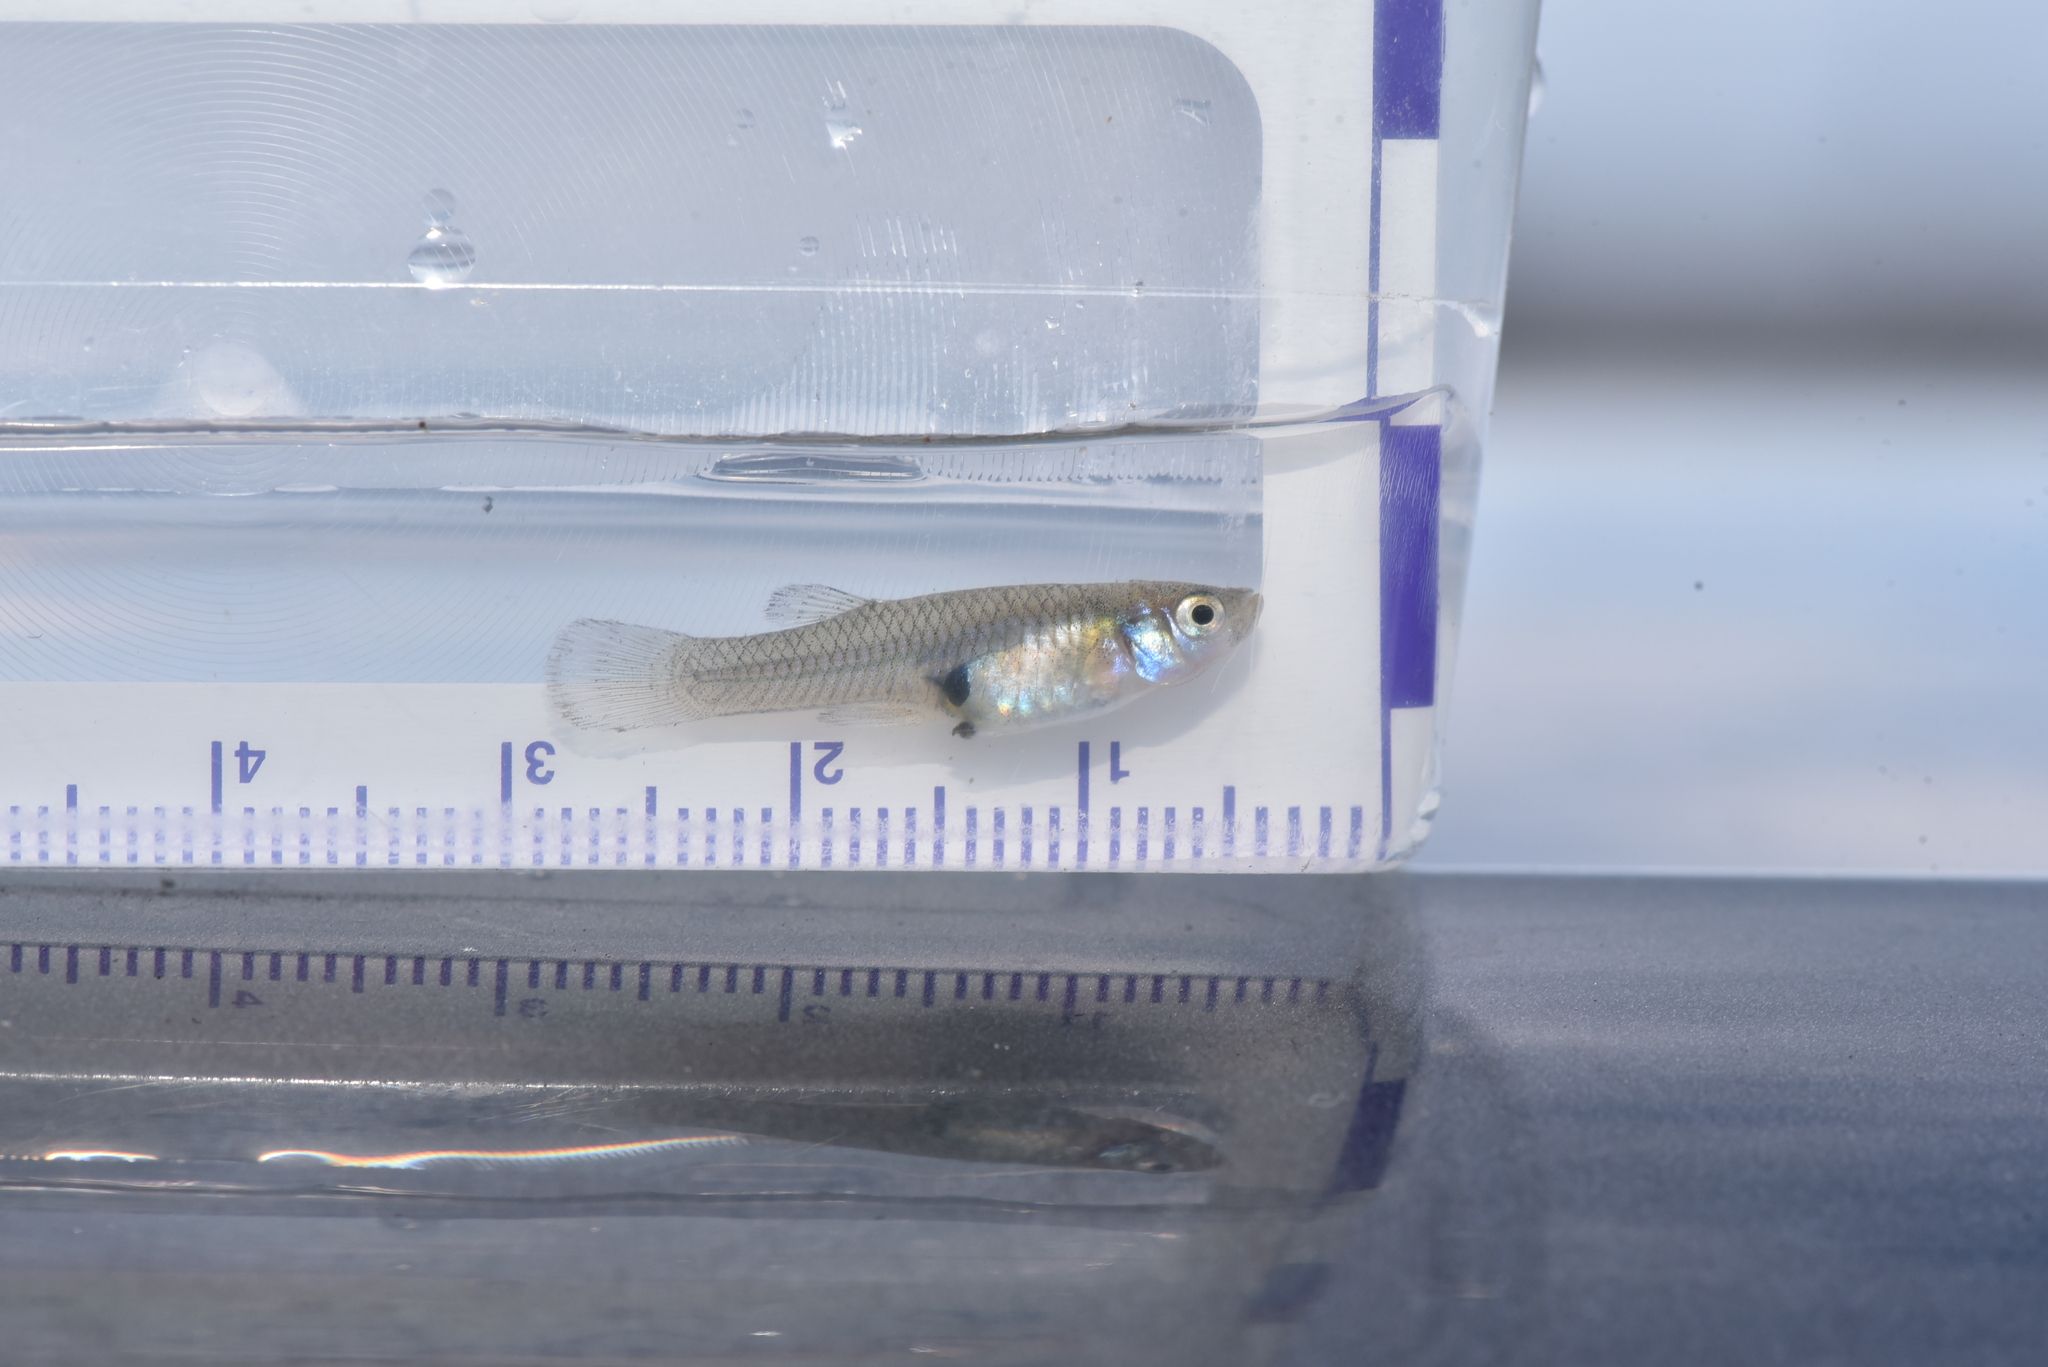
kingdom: Animalia
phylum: Chordata
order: Cyprinodontiformes
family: Poeciliidae
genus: Gambusia
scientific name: Gambusia affinis
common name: Mosquitofish
